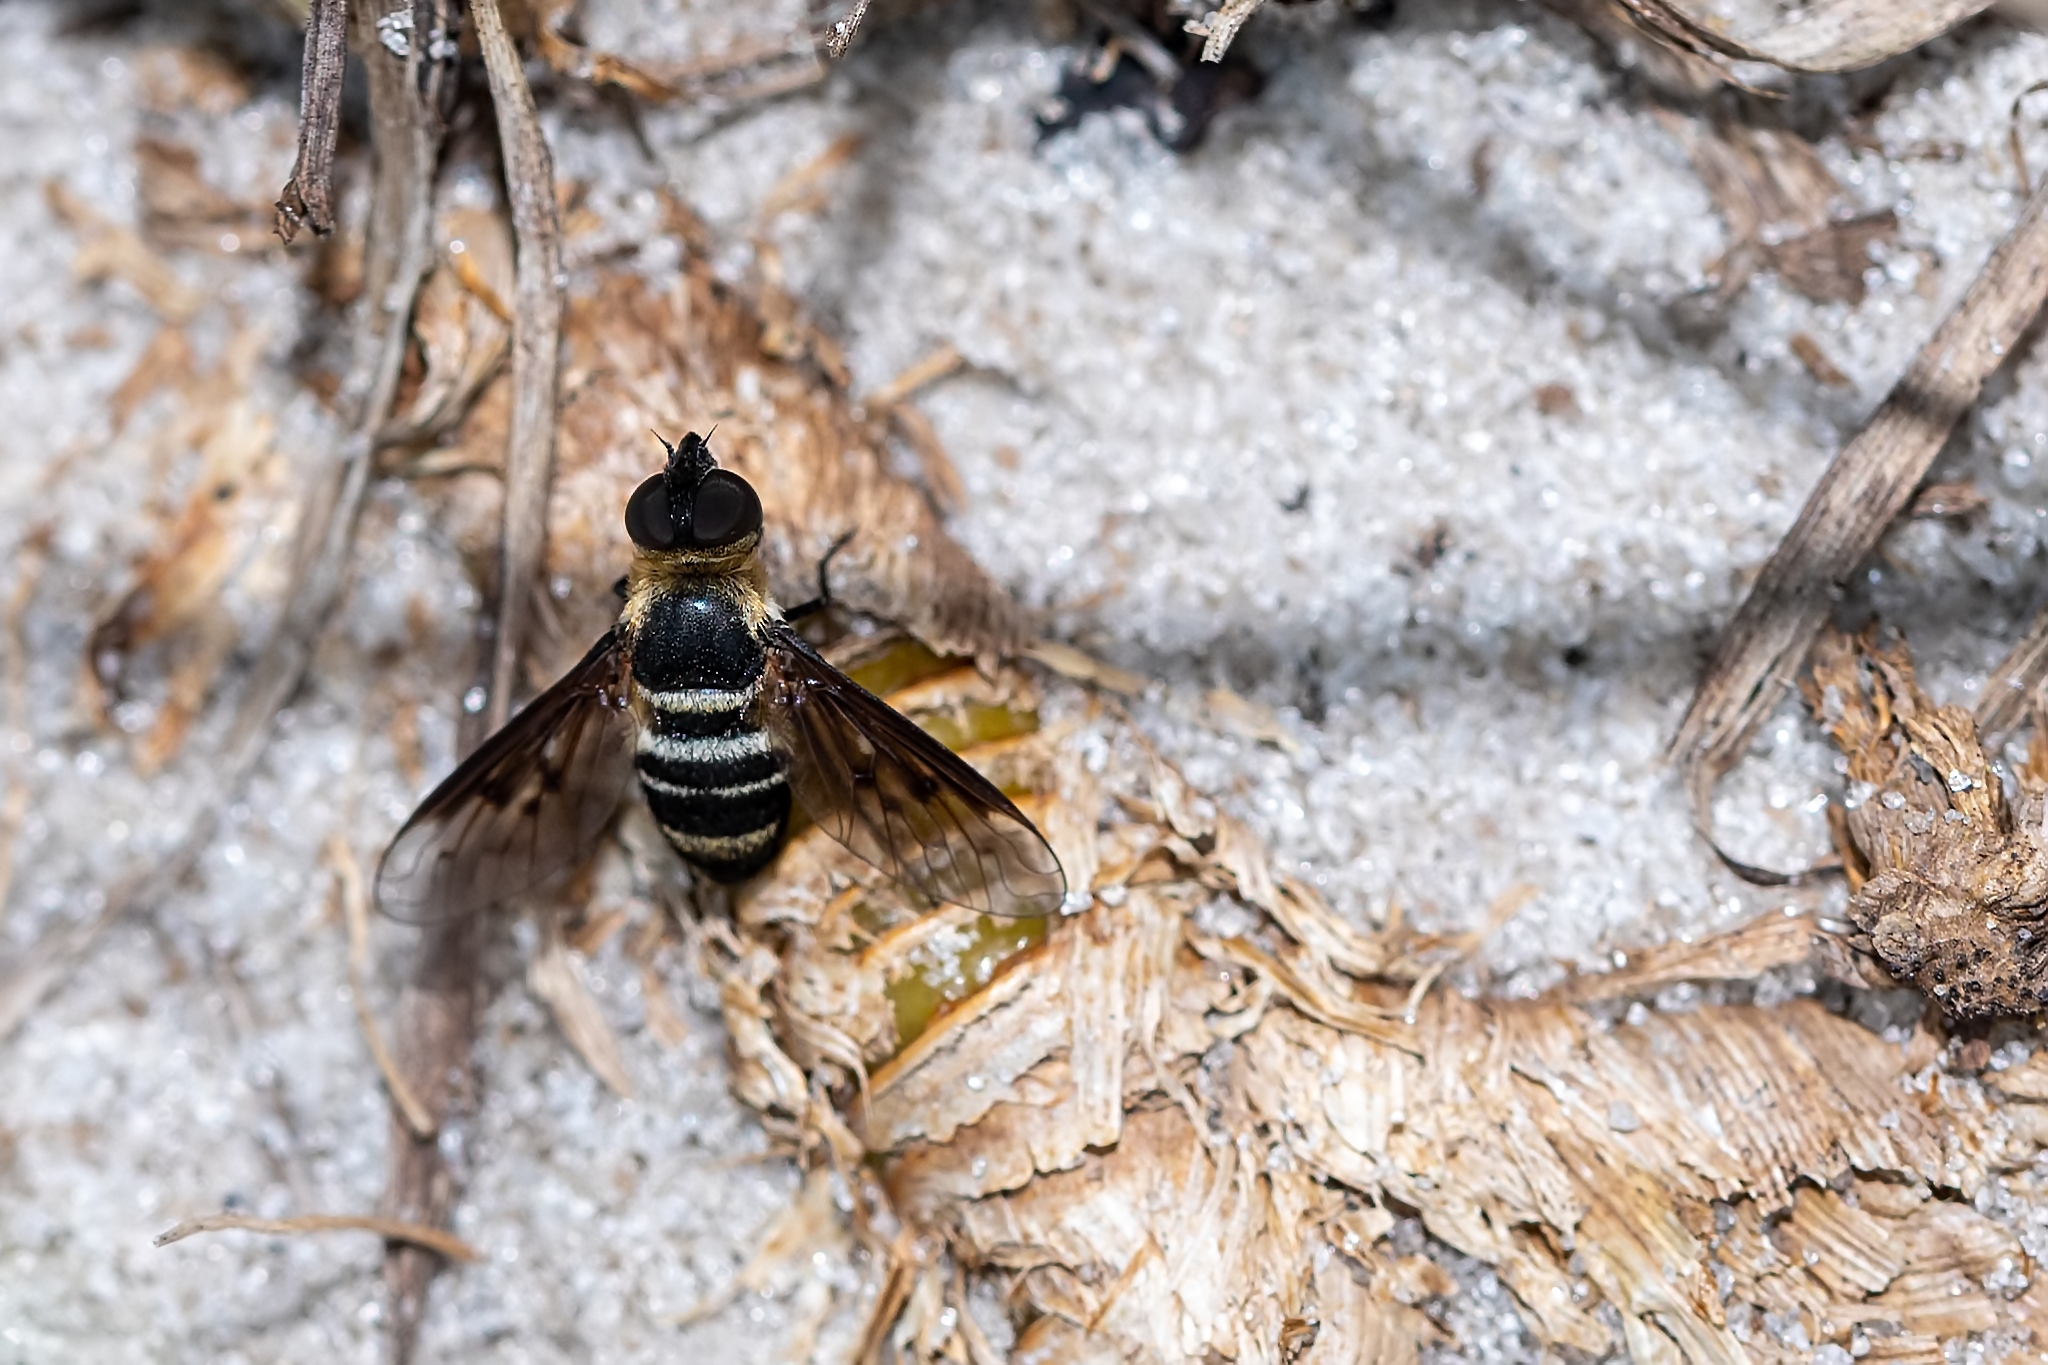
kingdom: Animalia
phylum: Arthropoda
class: Insecta
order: Diptera
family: Bombyliidae
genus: Chrysanthrax
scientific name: Chrysanthrax dispar
